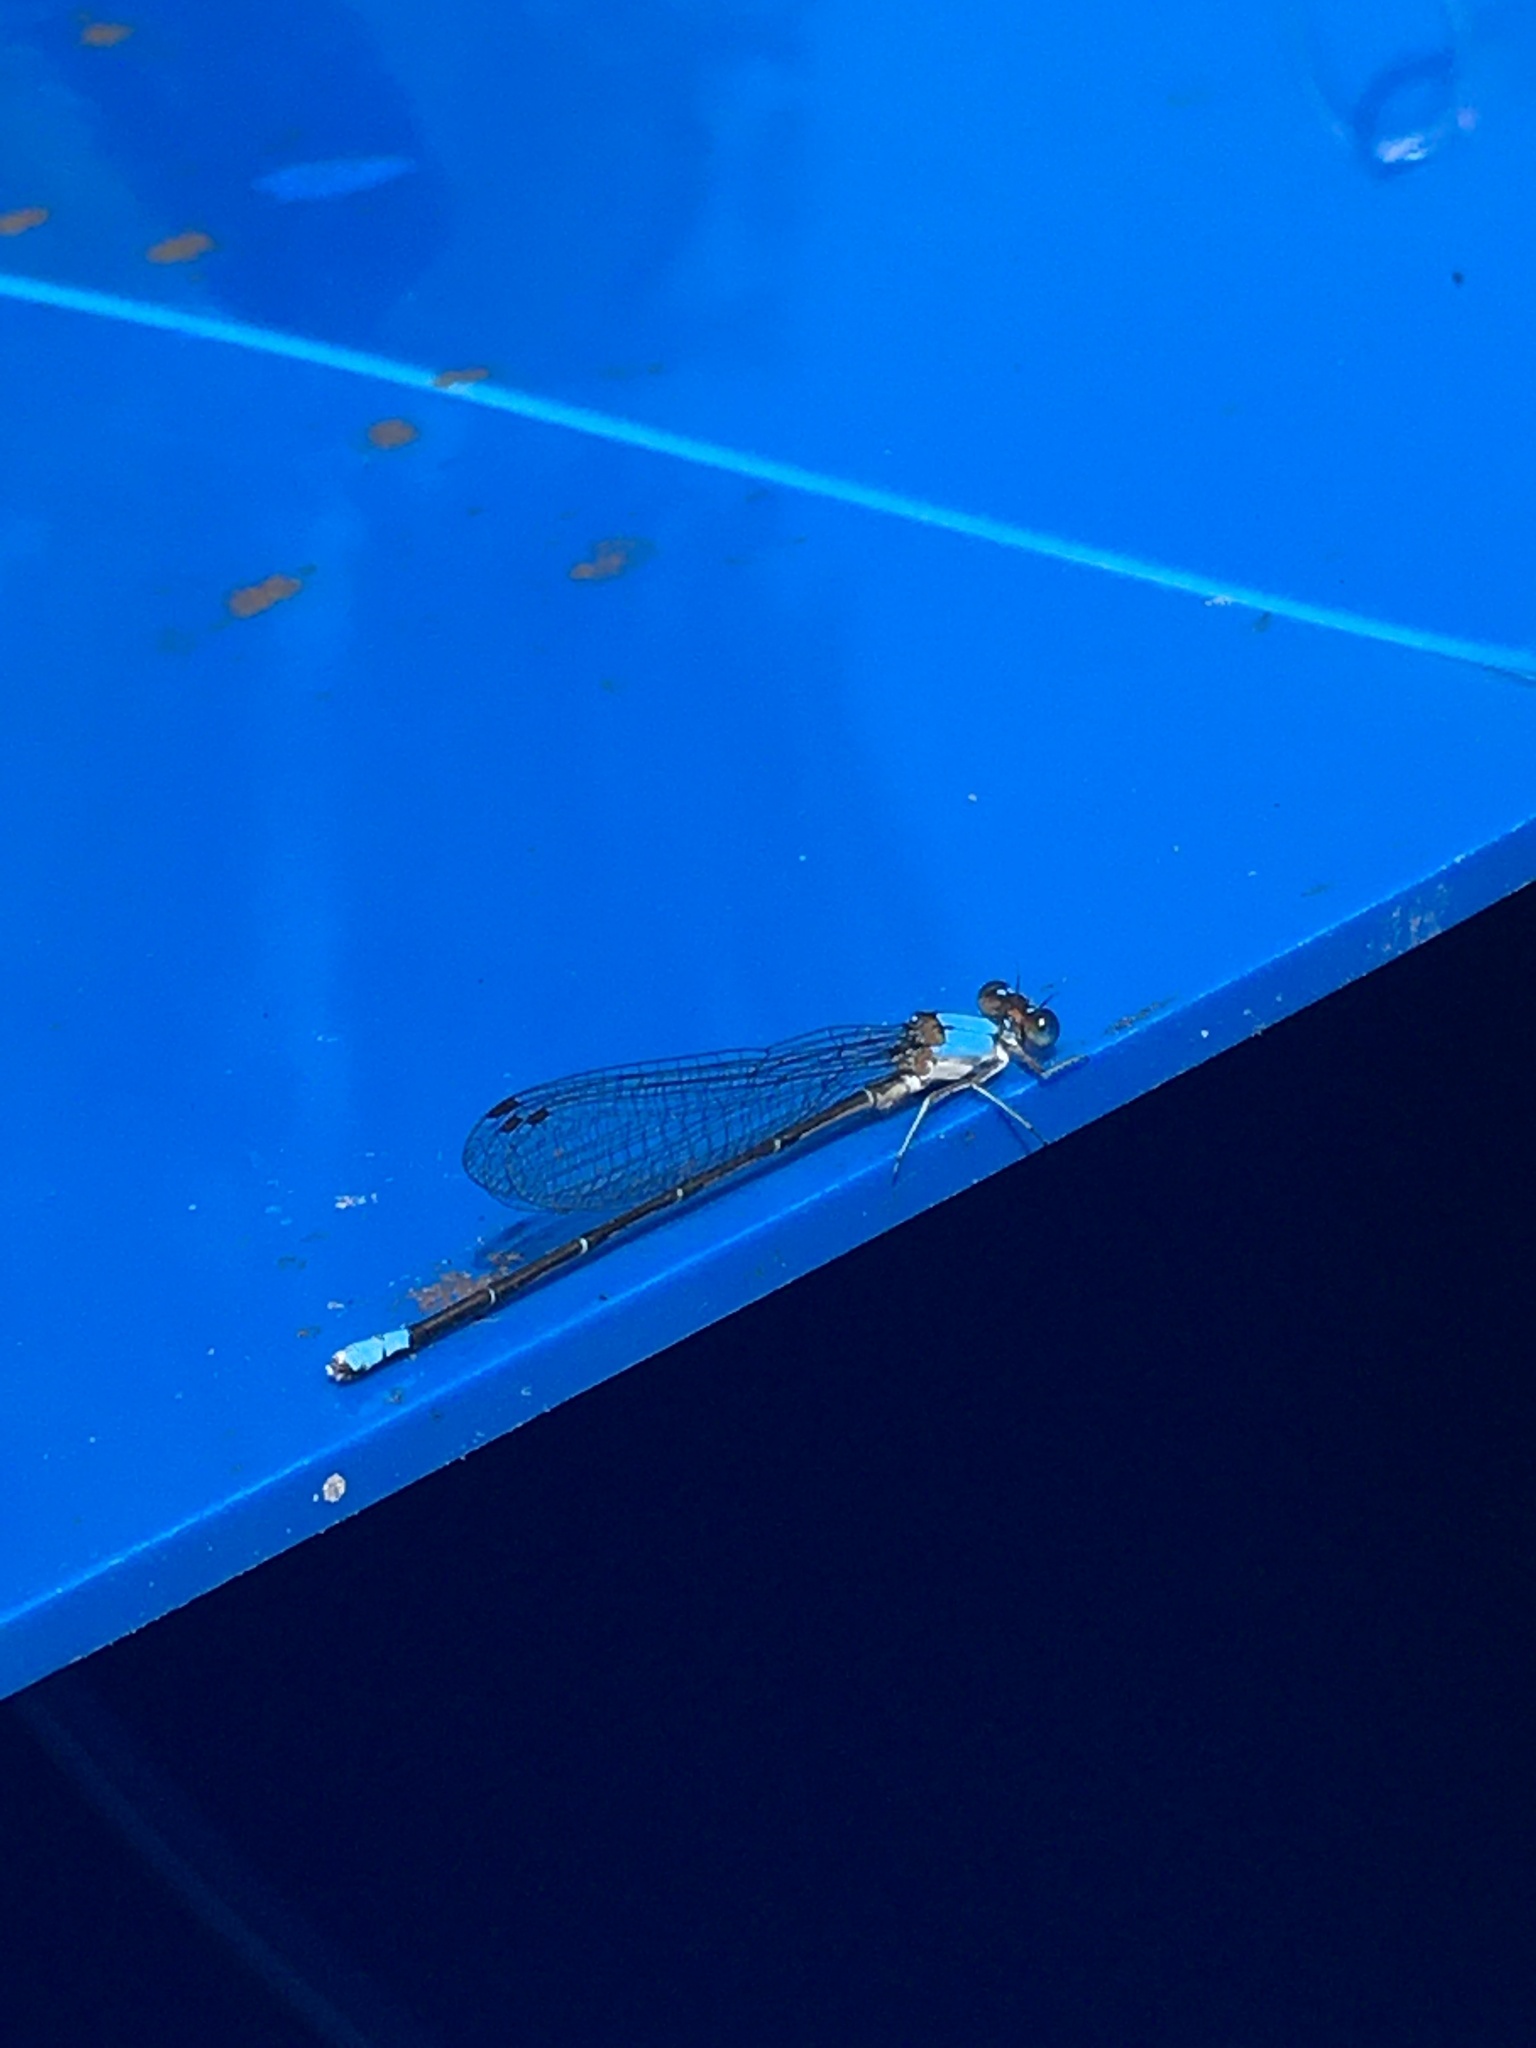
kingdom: Animalia
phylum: Arthropoda
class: Insecta
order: Odonata
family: Coenagrionidae
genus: Argia
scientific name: Argia apicalis
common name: Blue-fronted dancer
